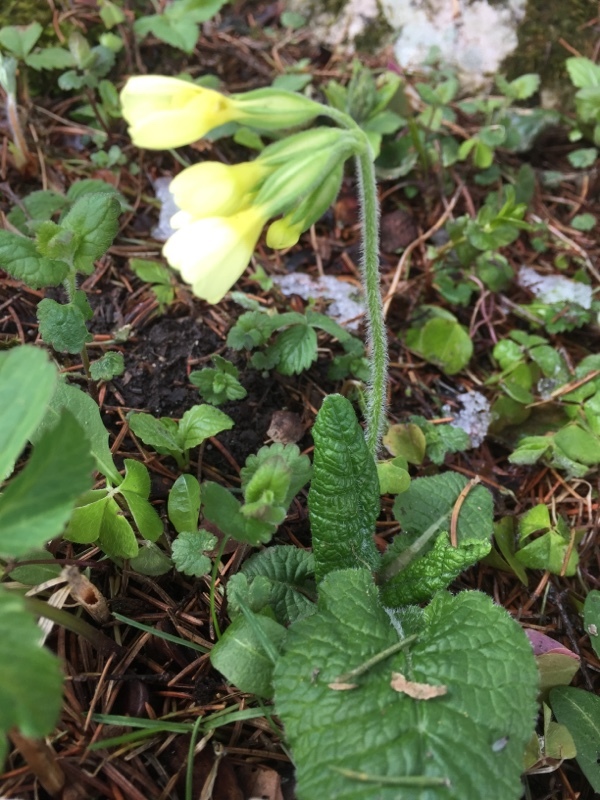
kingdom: Plantae
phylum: Tracheophyta
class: Magnoliopsida
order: Ericales
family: Primulaceae
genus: Primula
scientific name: Primula elatior
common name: Oxlip
